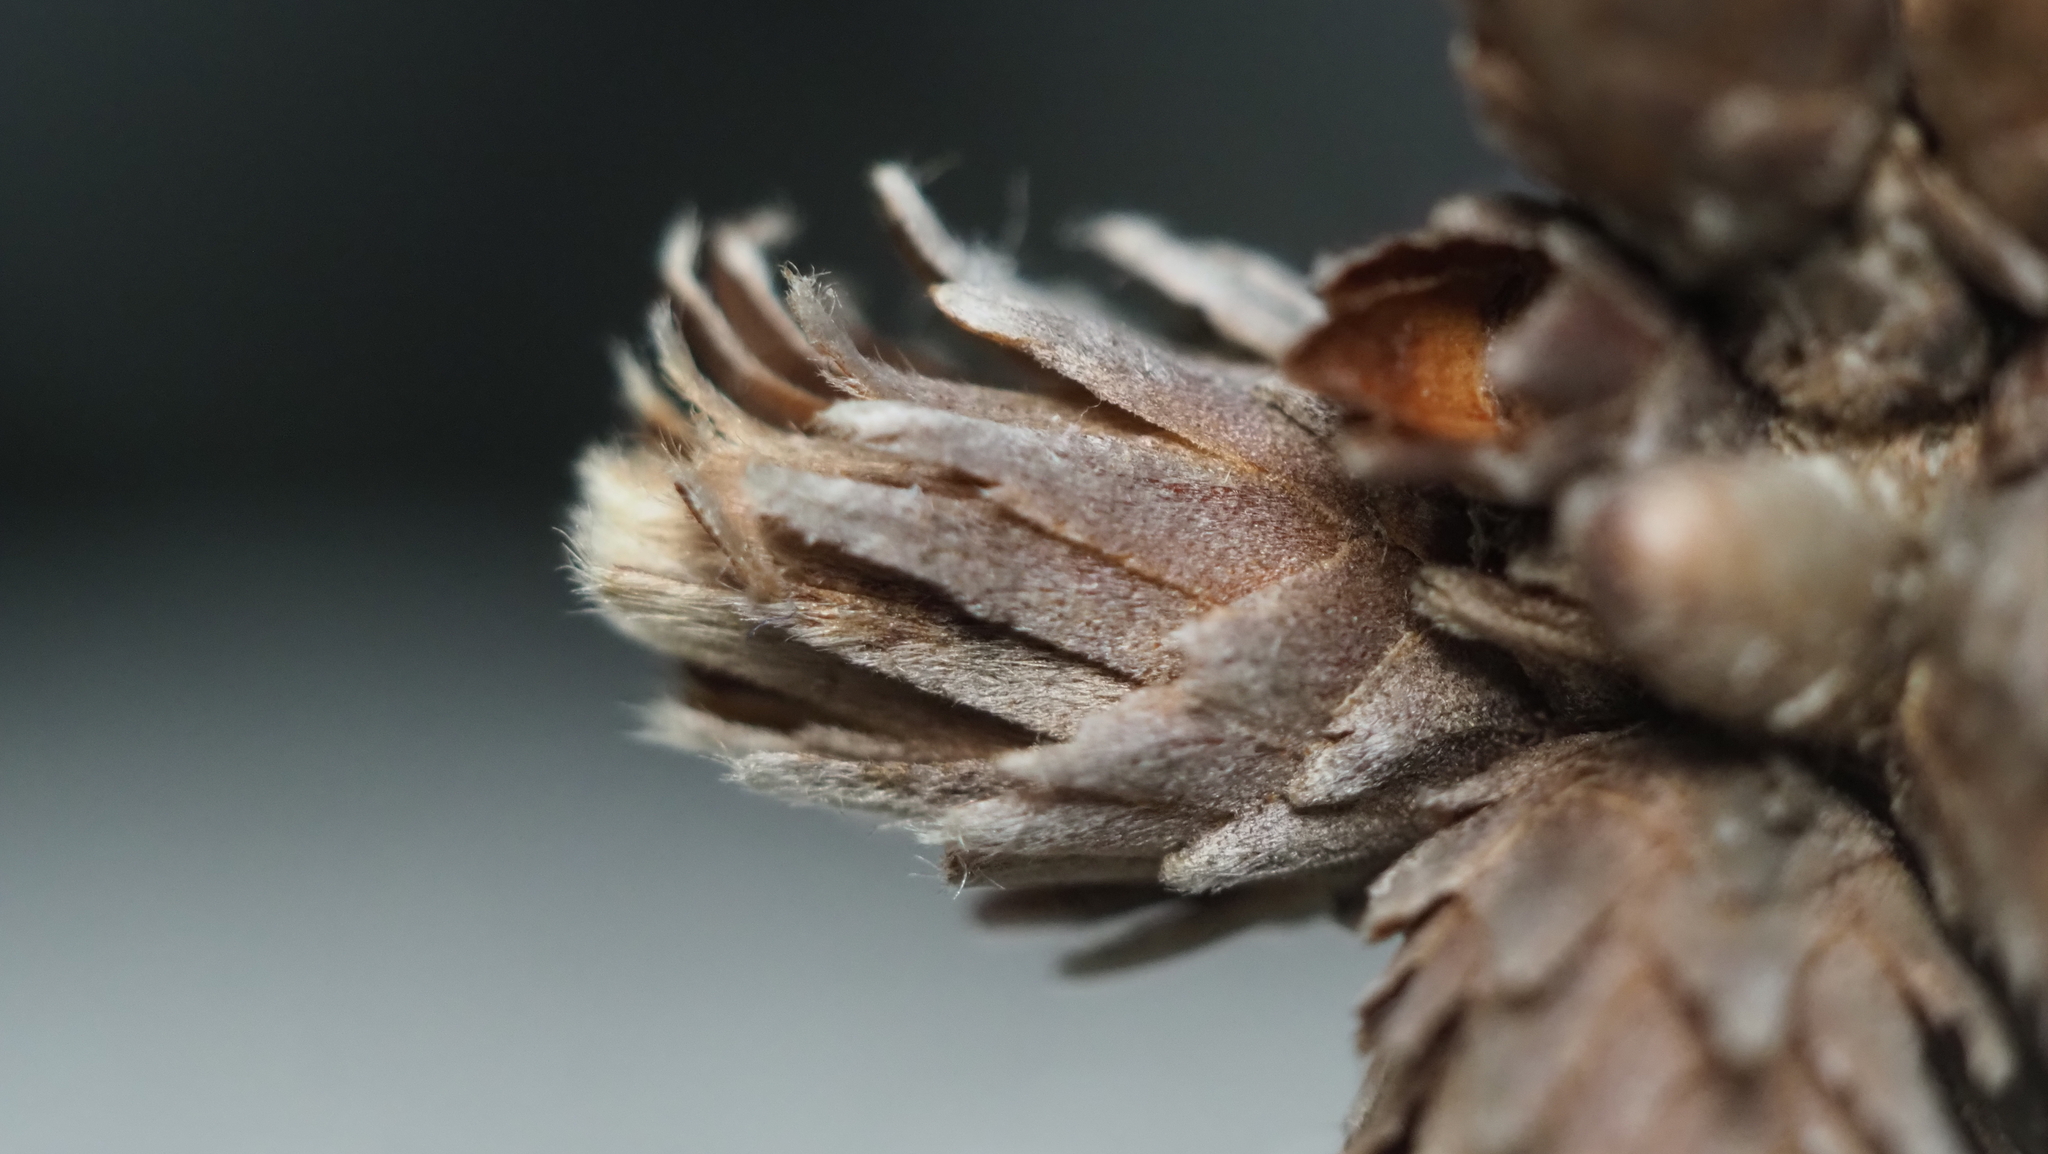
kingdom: Animalia
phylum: Arthropoda
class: Insecta
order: Diptera
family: Cecidomyiidae
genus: Arnoldiola
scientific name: Arnoldiola atra
